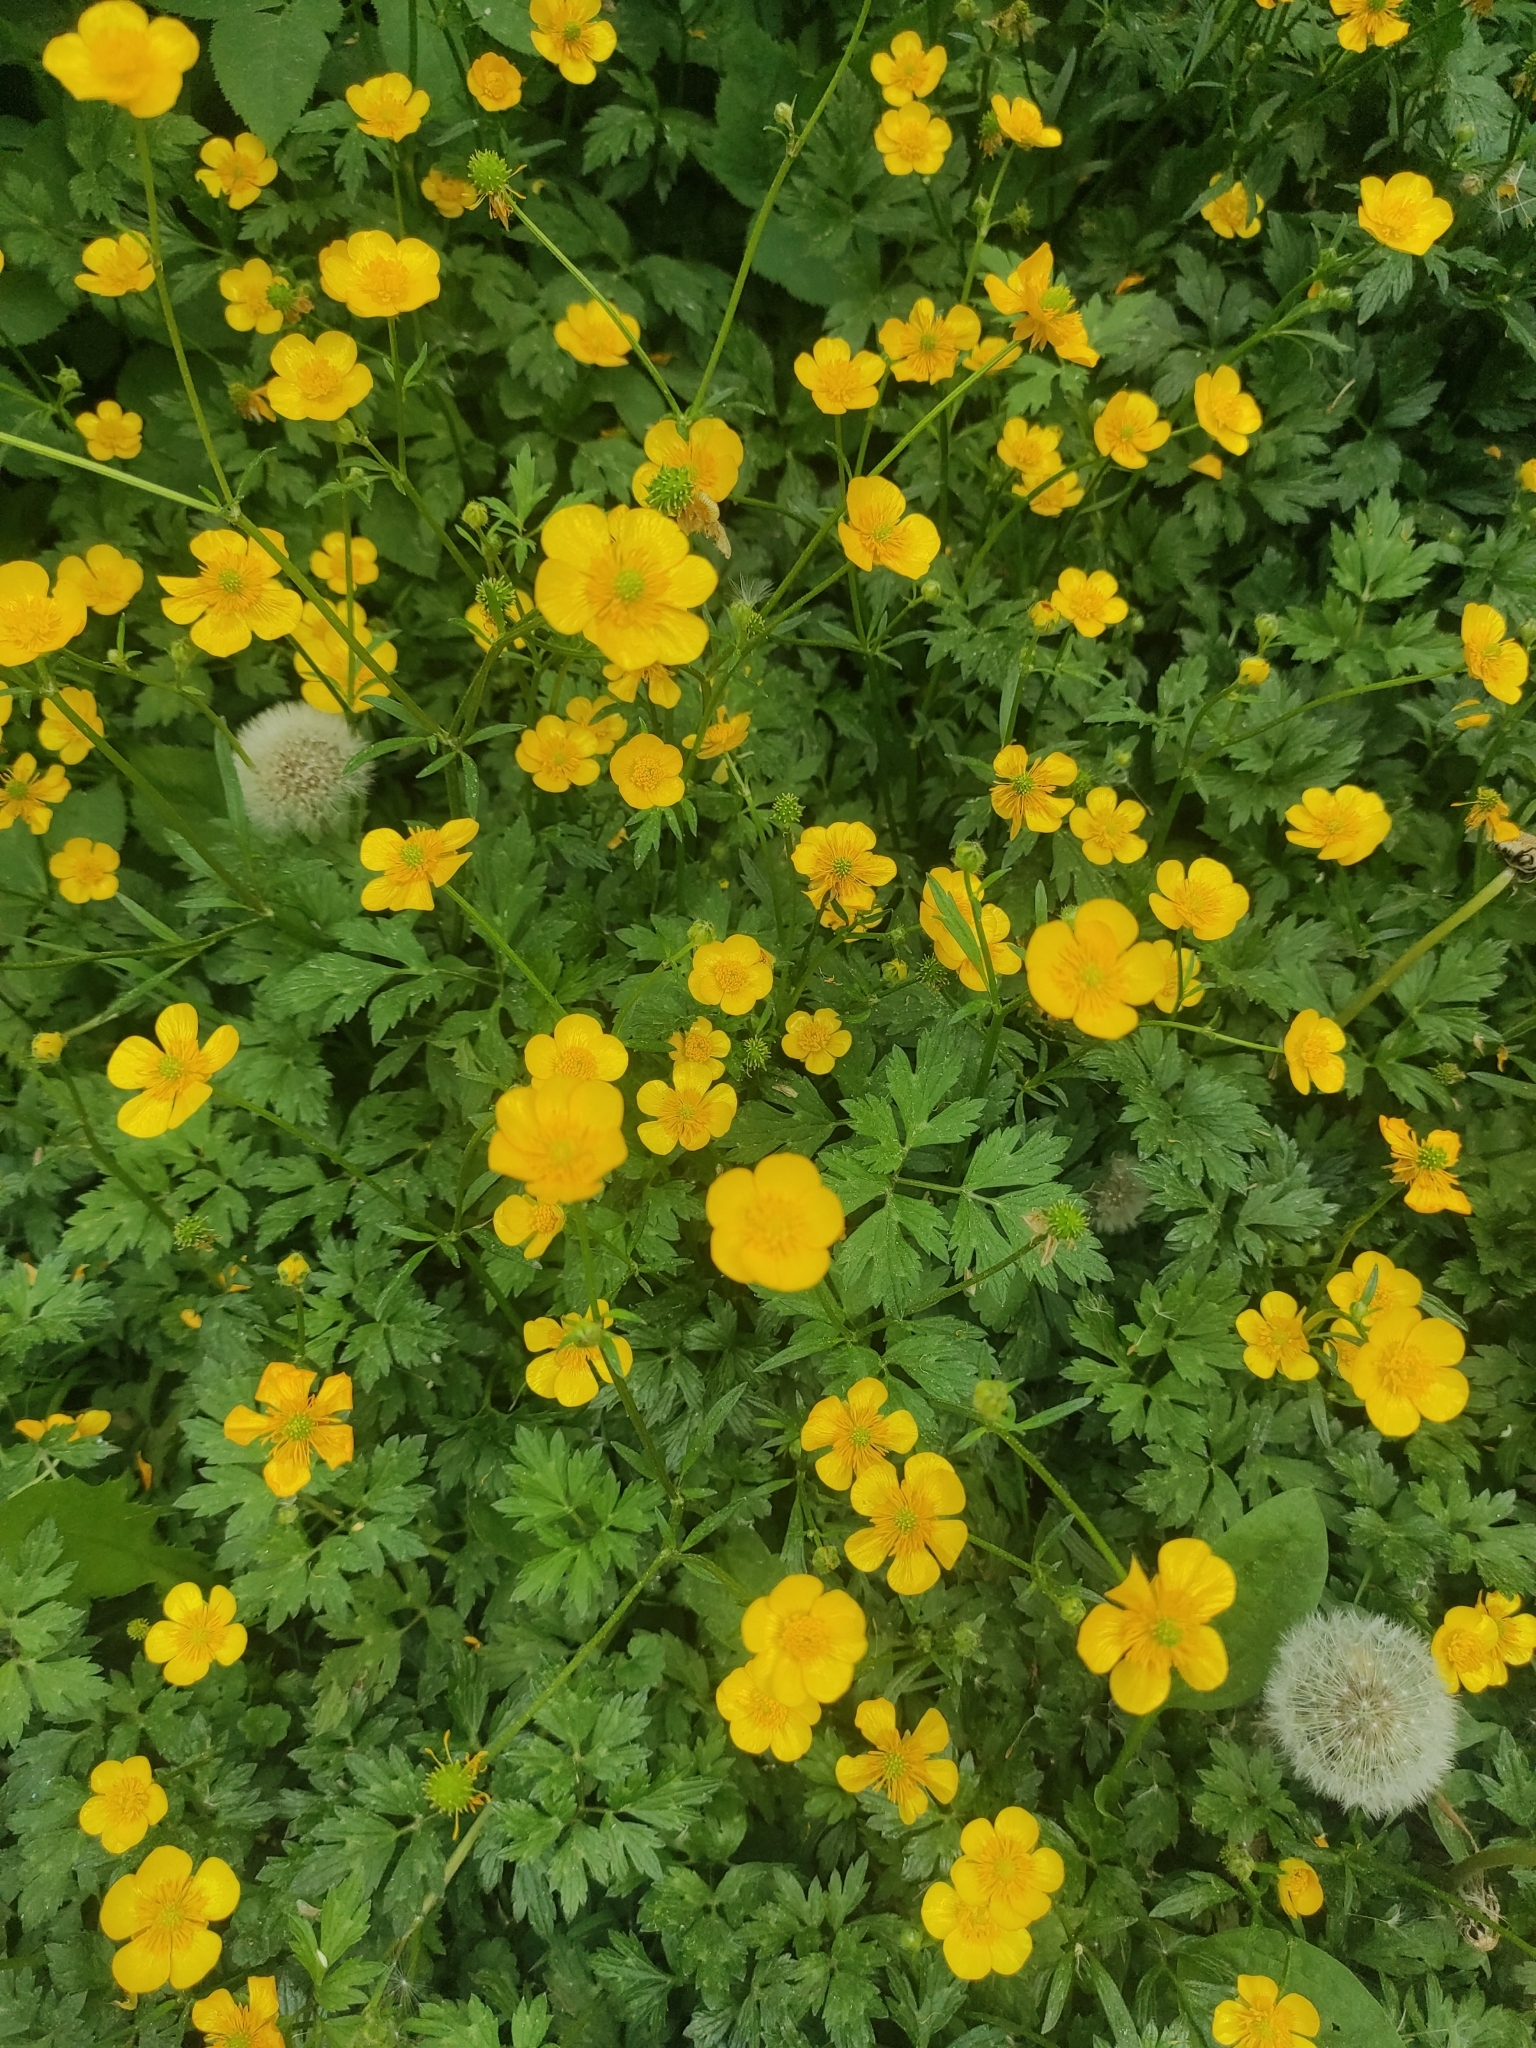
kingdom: Plantae
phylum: Tracheophyta
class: Magnoliopsida
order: Ranunculales
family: Ranunculaceae
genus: Ranunculus
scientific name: Ranunculus repens
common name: Creeping buttercup
